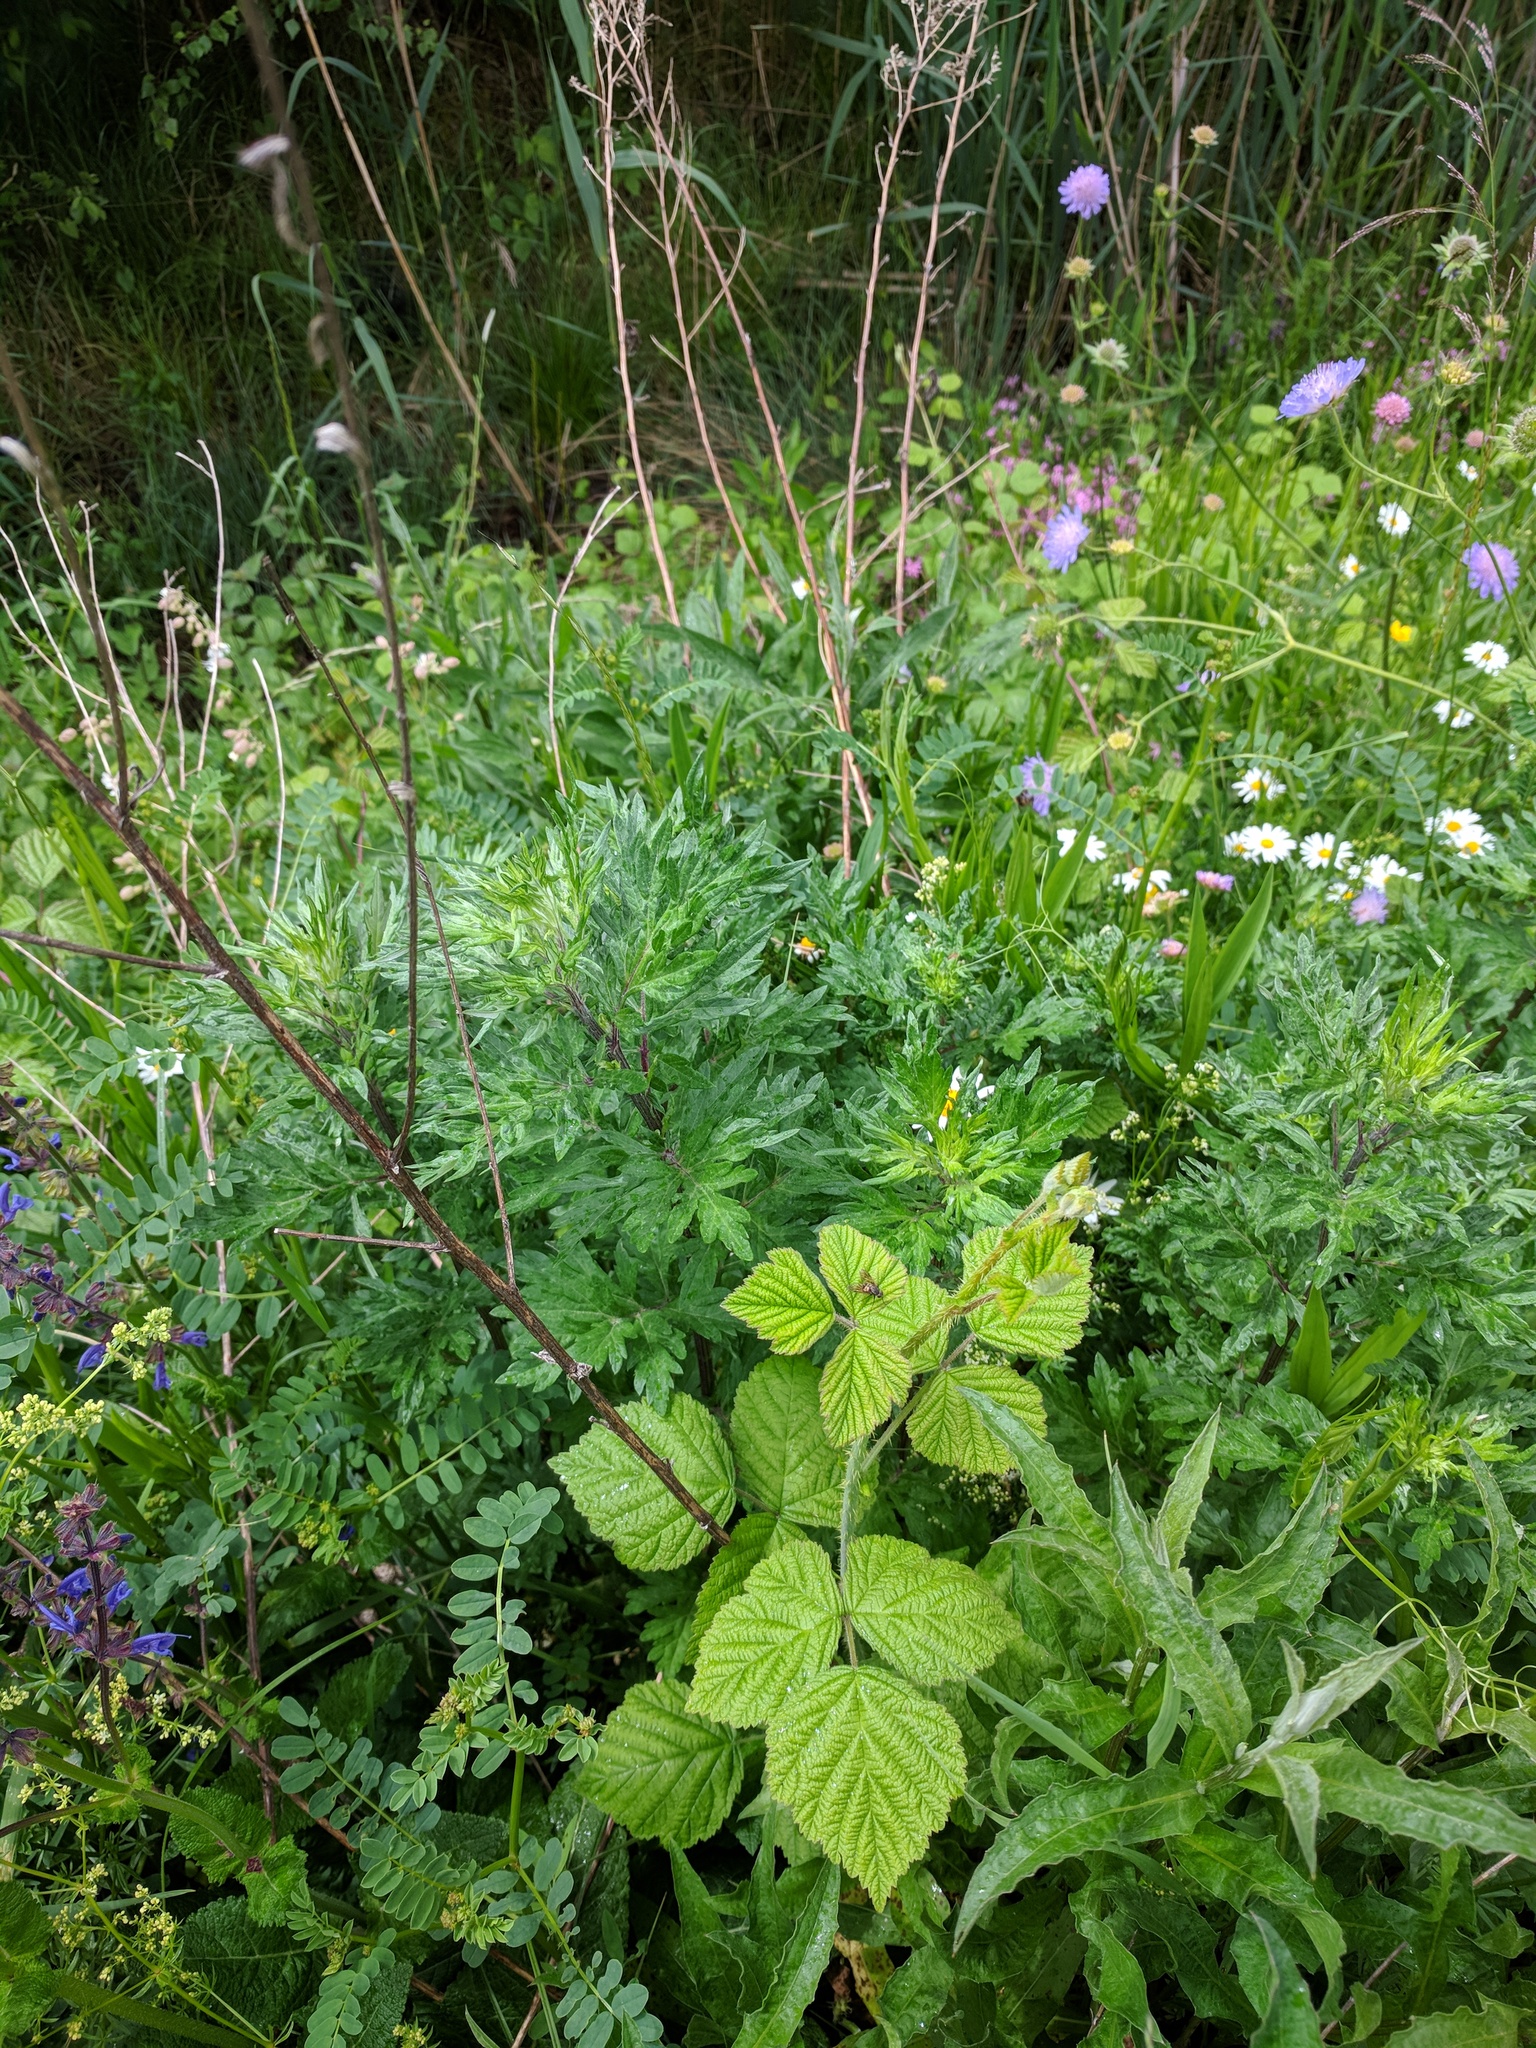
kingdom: Plantae
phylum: Tracheophyta
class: Magnoliopsida
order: Asterales
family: Asteraceae
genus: Artemisia
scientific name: Artemisia vulgaris
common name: Mugwort
